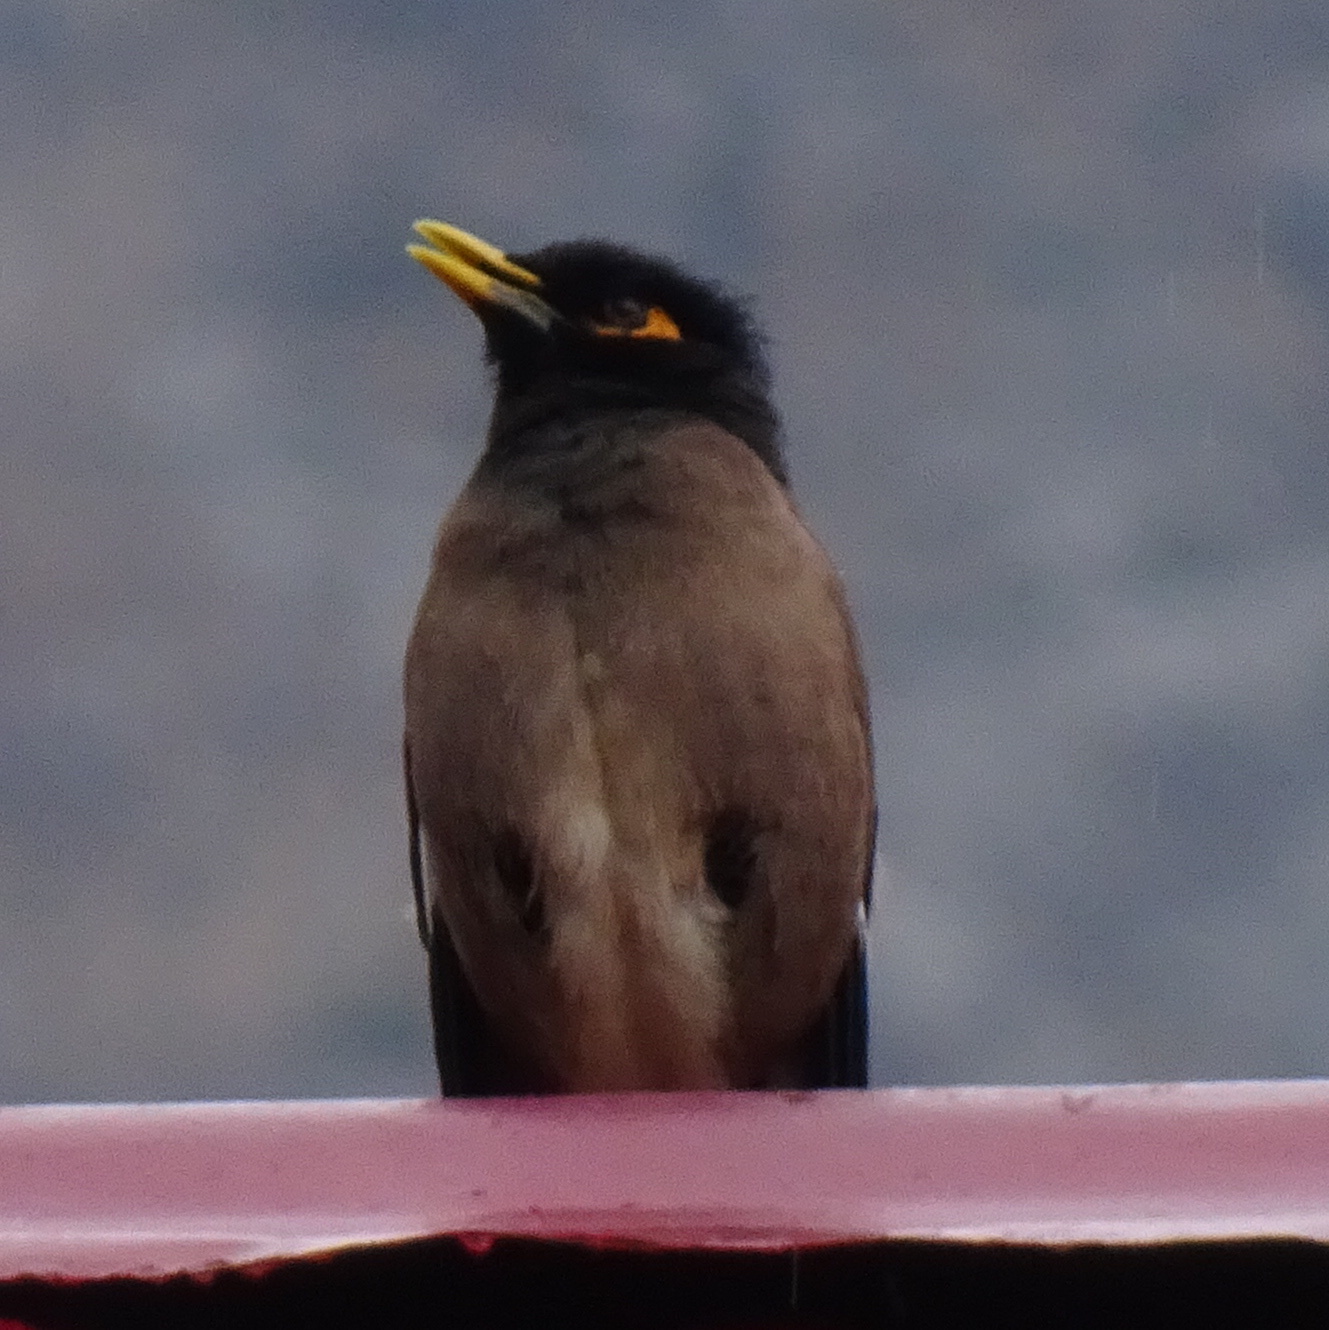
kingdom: Animalia
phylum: Chordata
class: Aves
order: Passeriformes
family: Sturnidae
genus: Acridotheres
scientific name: Acridotheres tristis
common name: Common myna
